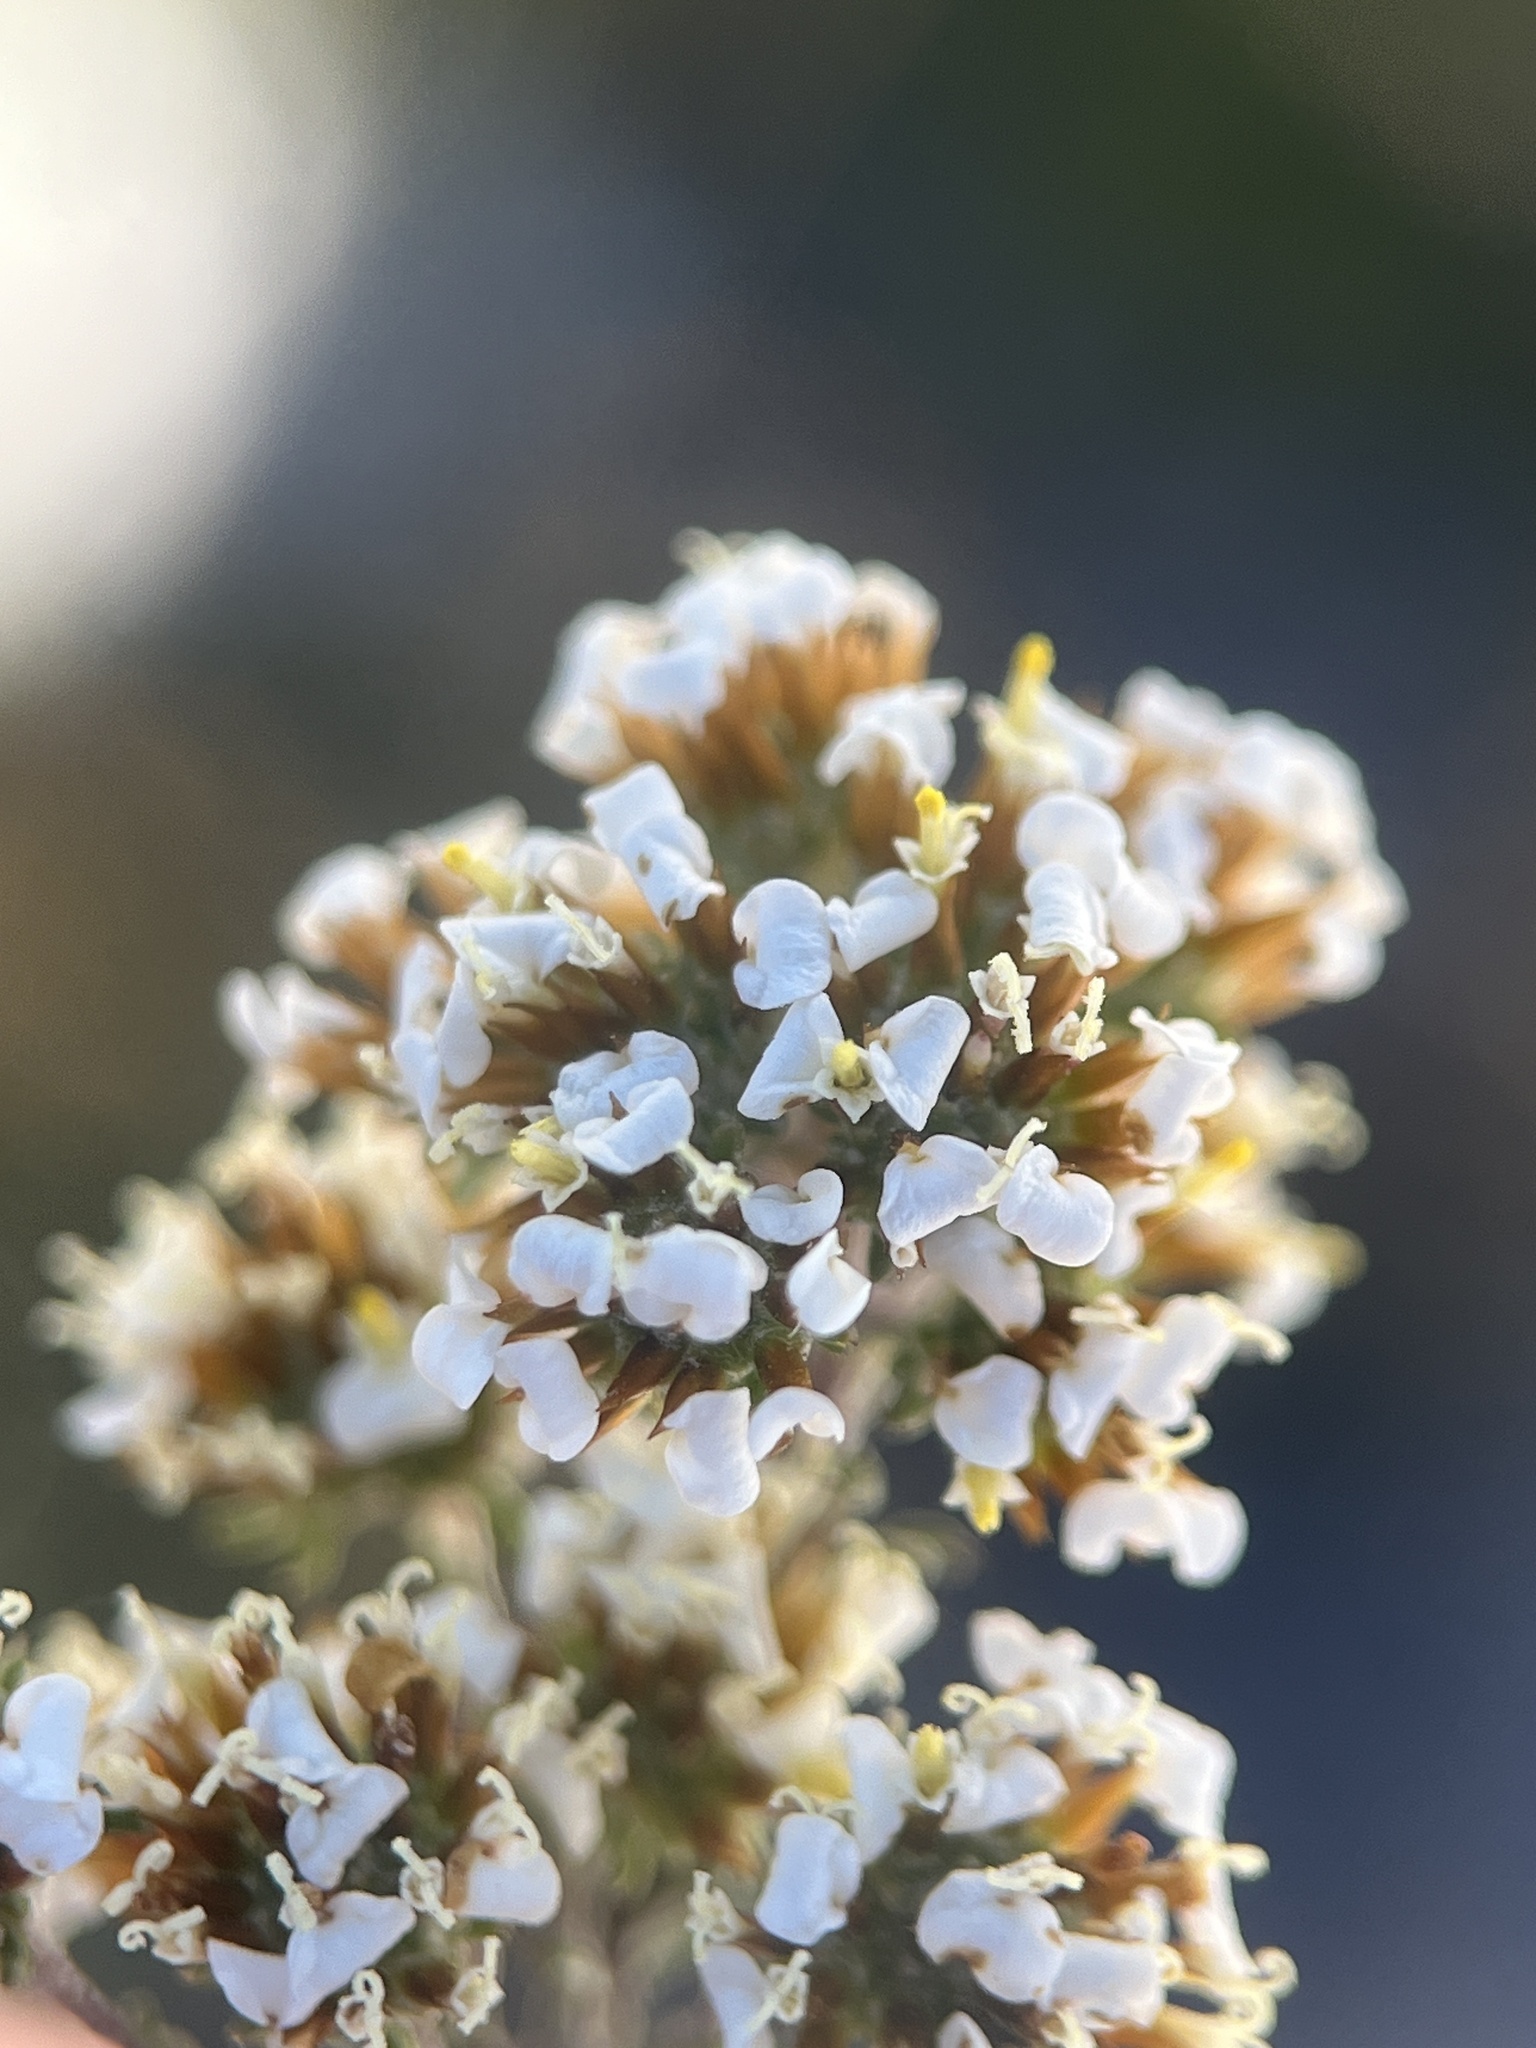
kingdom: Plantae
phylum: Tracheophyta
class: Magnoliopsida
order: Asterales
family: Asteraceae
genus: Disparago
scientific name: Disparago anomala
